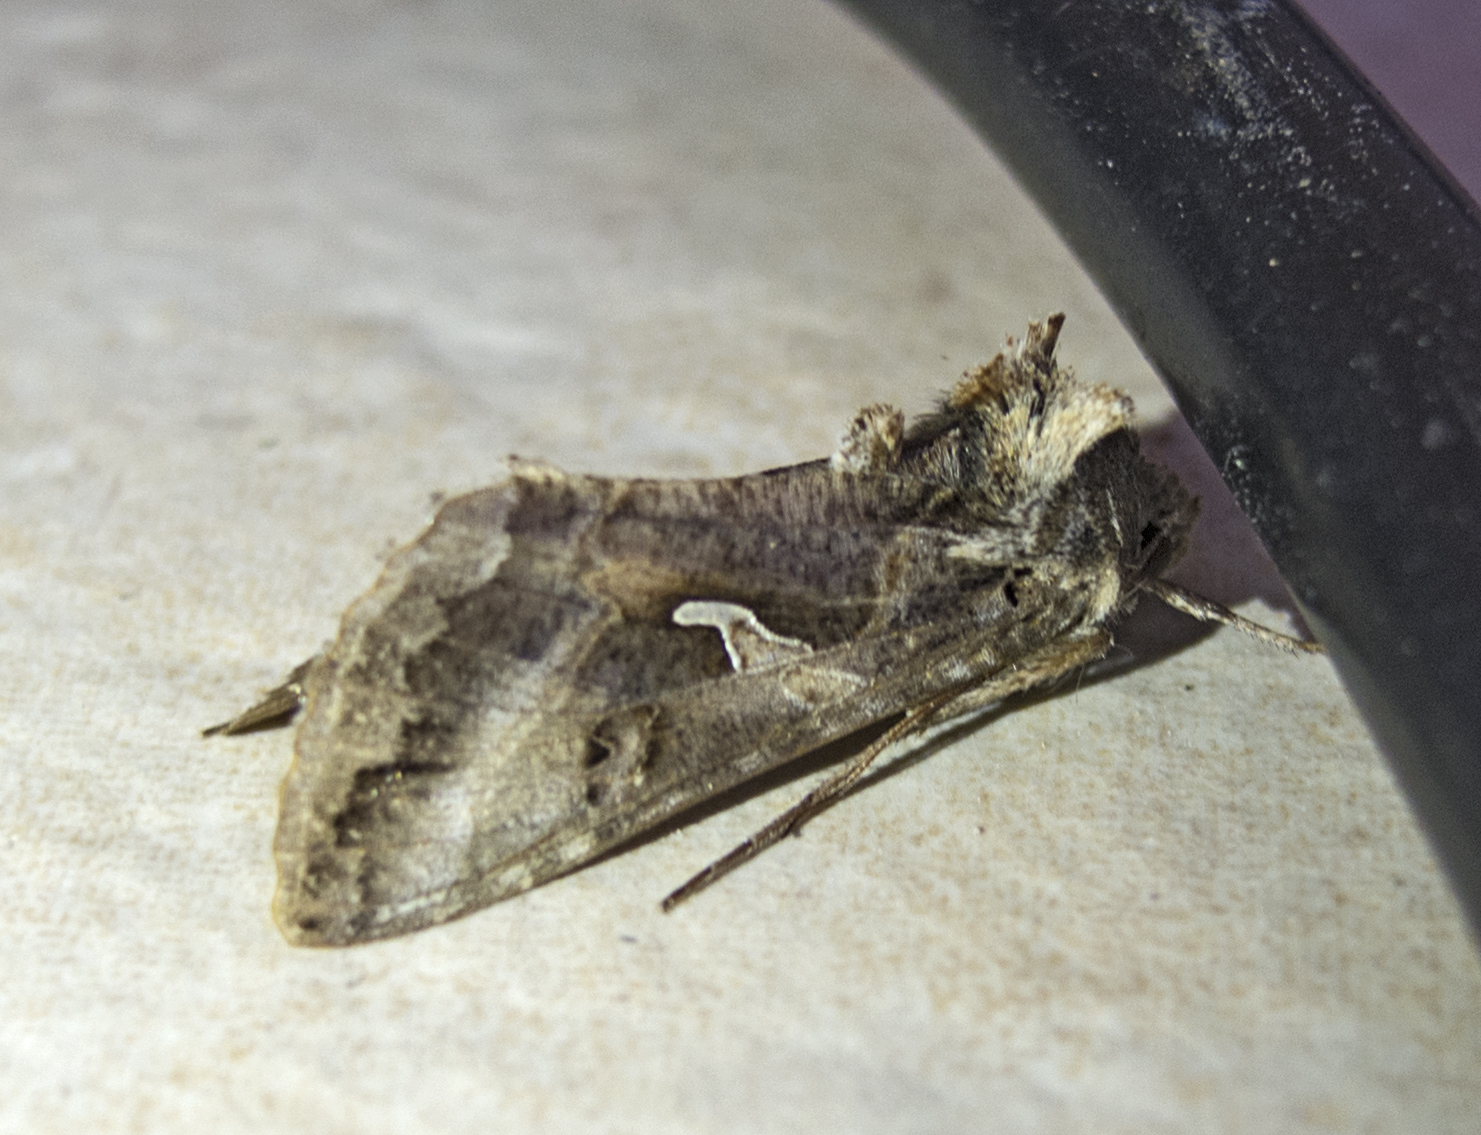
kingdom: Animalia
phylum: Arthropoda
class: Insecta
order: Lepidoptera
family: Noctuidae
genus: Autographa
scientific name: Autographa gamma
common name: Silver y
